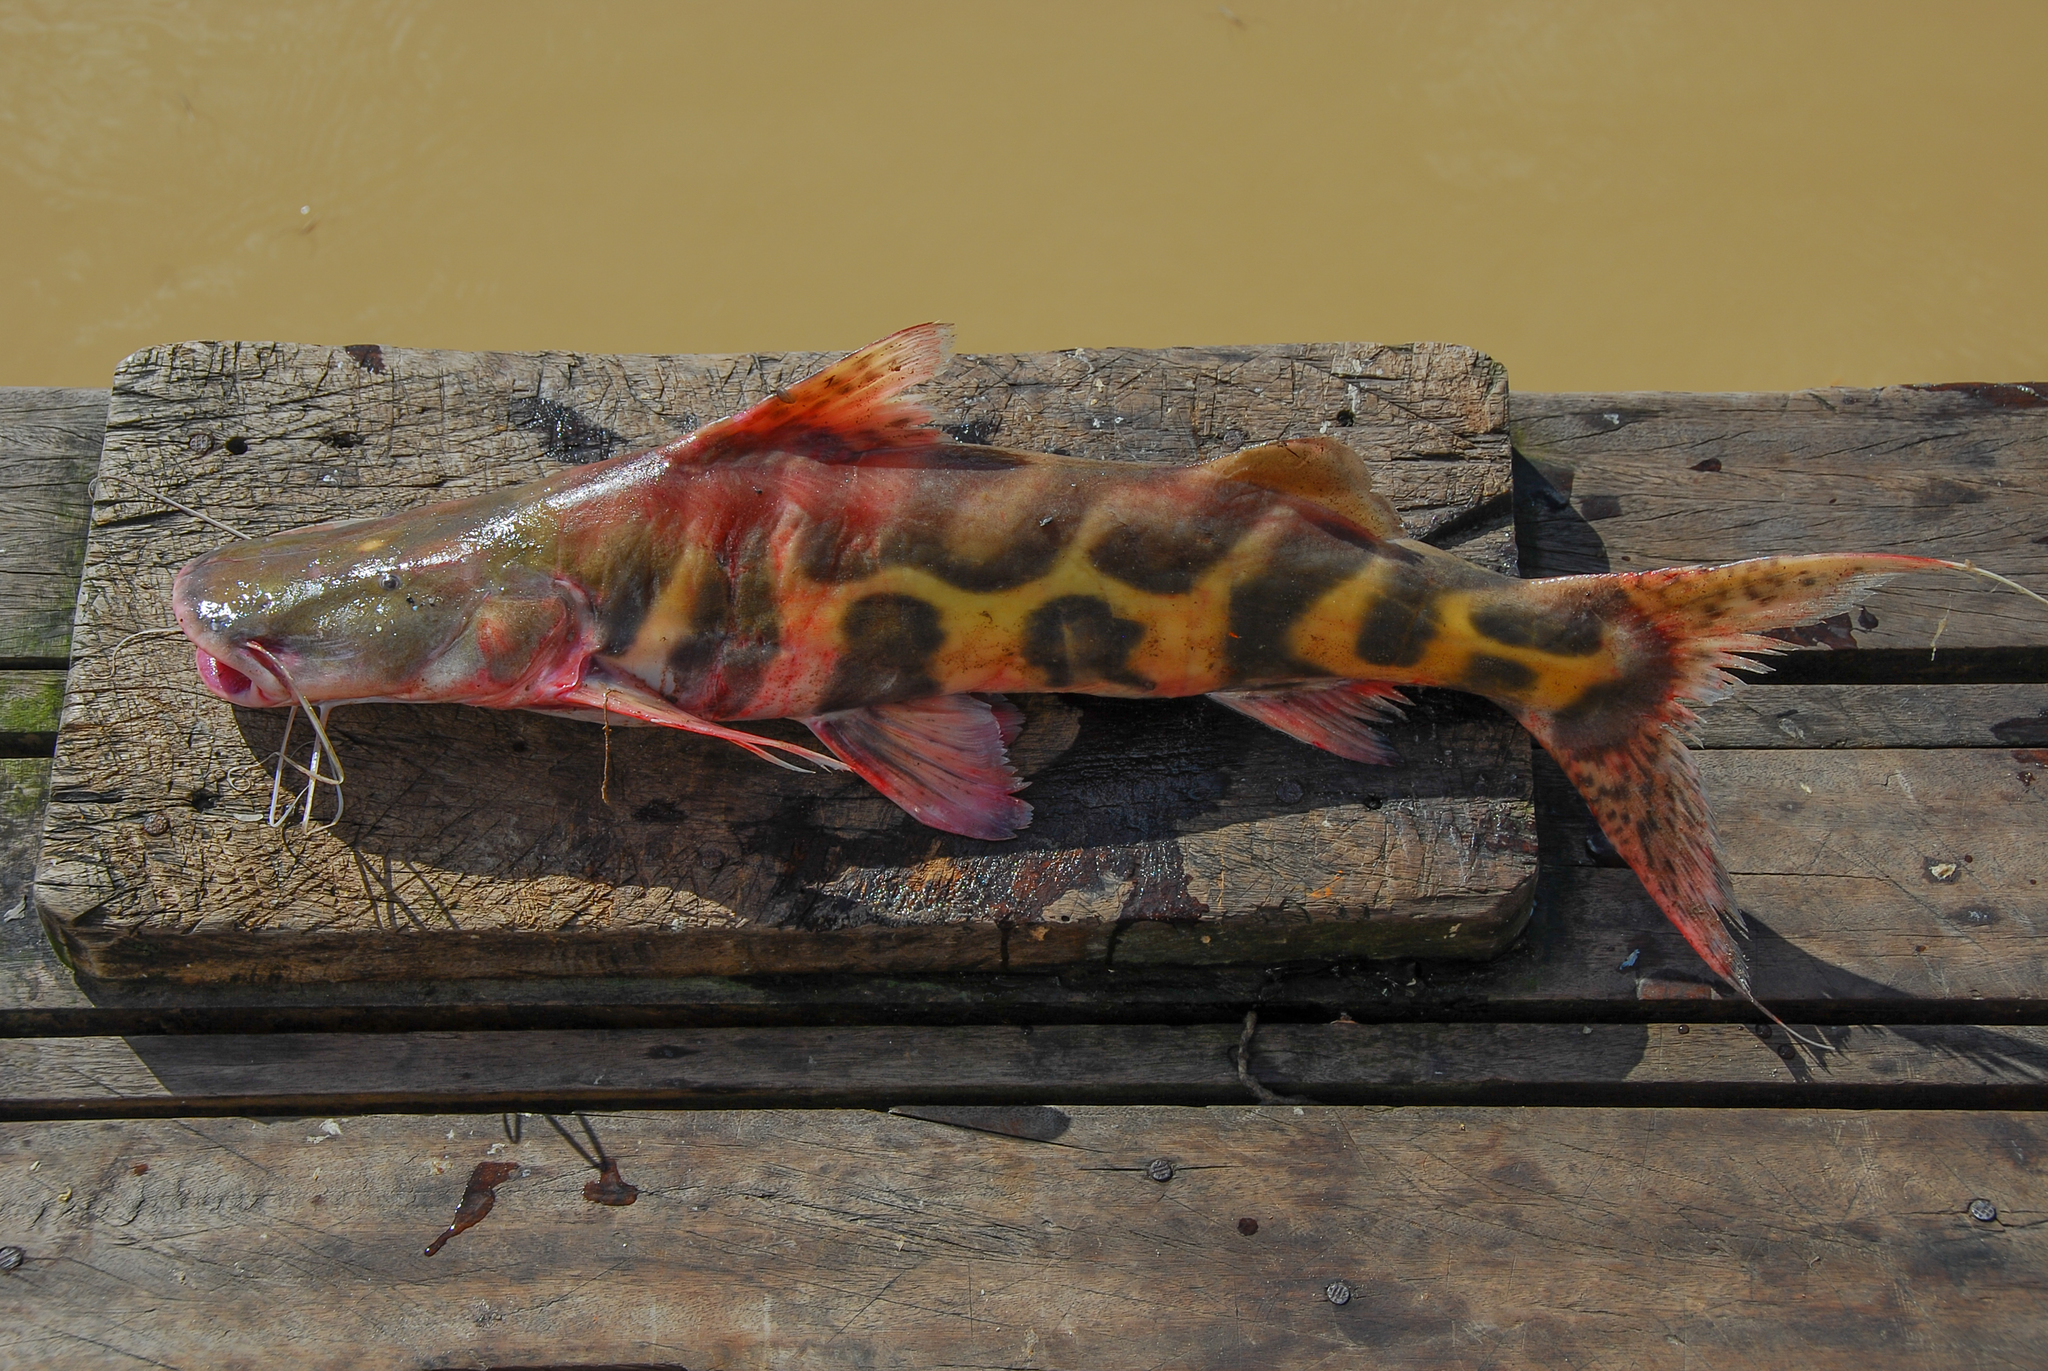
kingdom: Animalia
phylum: Chordata
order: Siluriformes
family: Pimelodidae
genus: Brachyplatystoma
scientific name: Brachyplatystoma juruense
